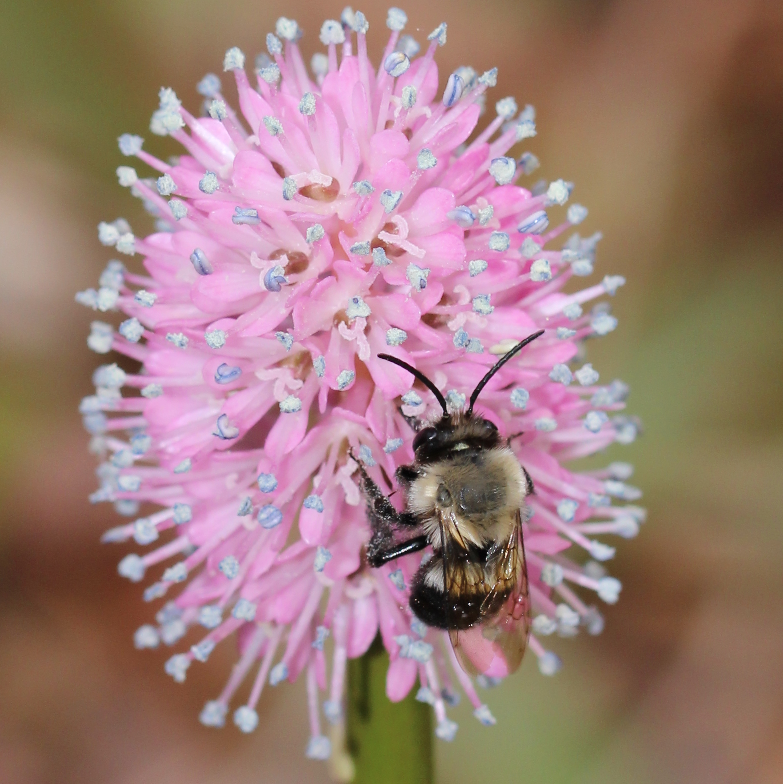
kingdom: Animalia
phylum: Arthropoda
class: Insecta
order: Hymenoptera
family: Apidae
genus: Habropoda
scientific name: Habropoda laboriosa
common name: Southeastern blueberry bee
